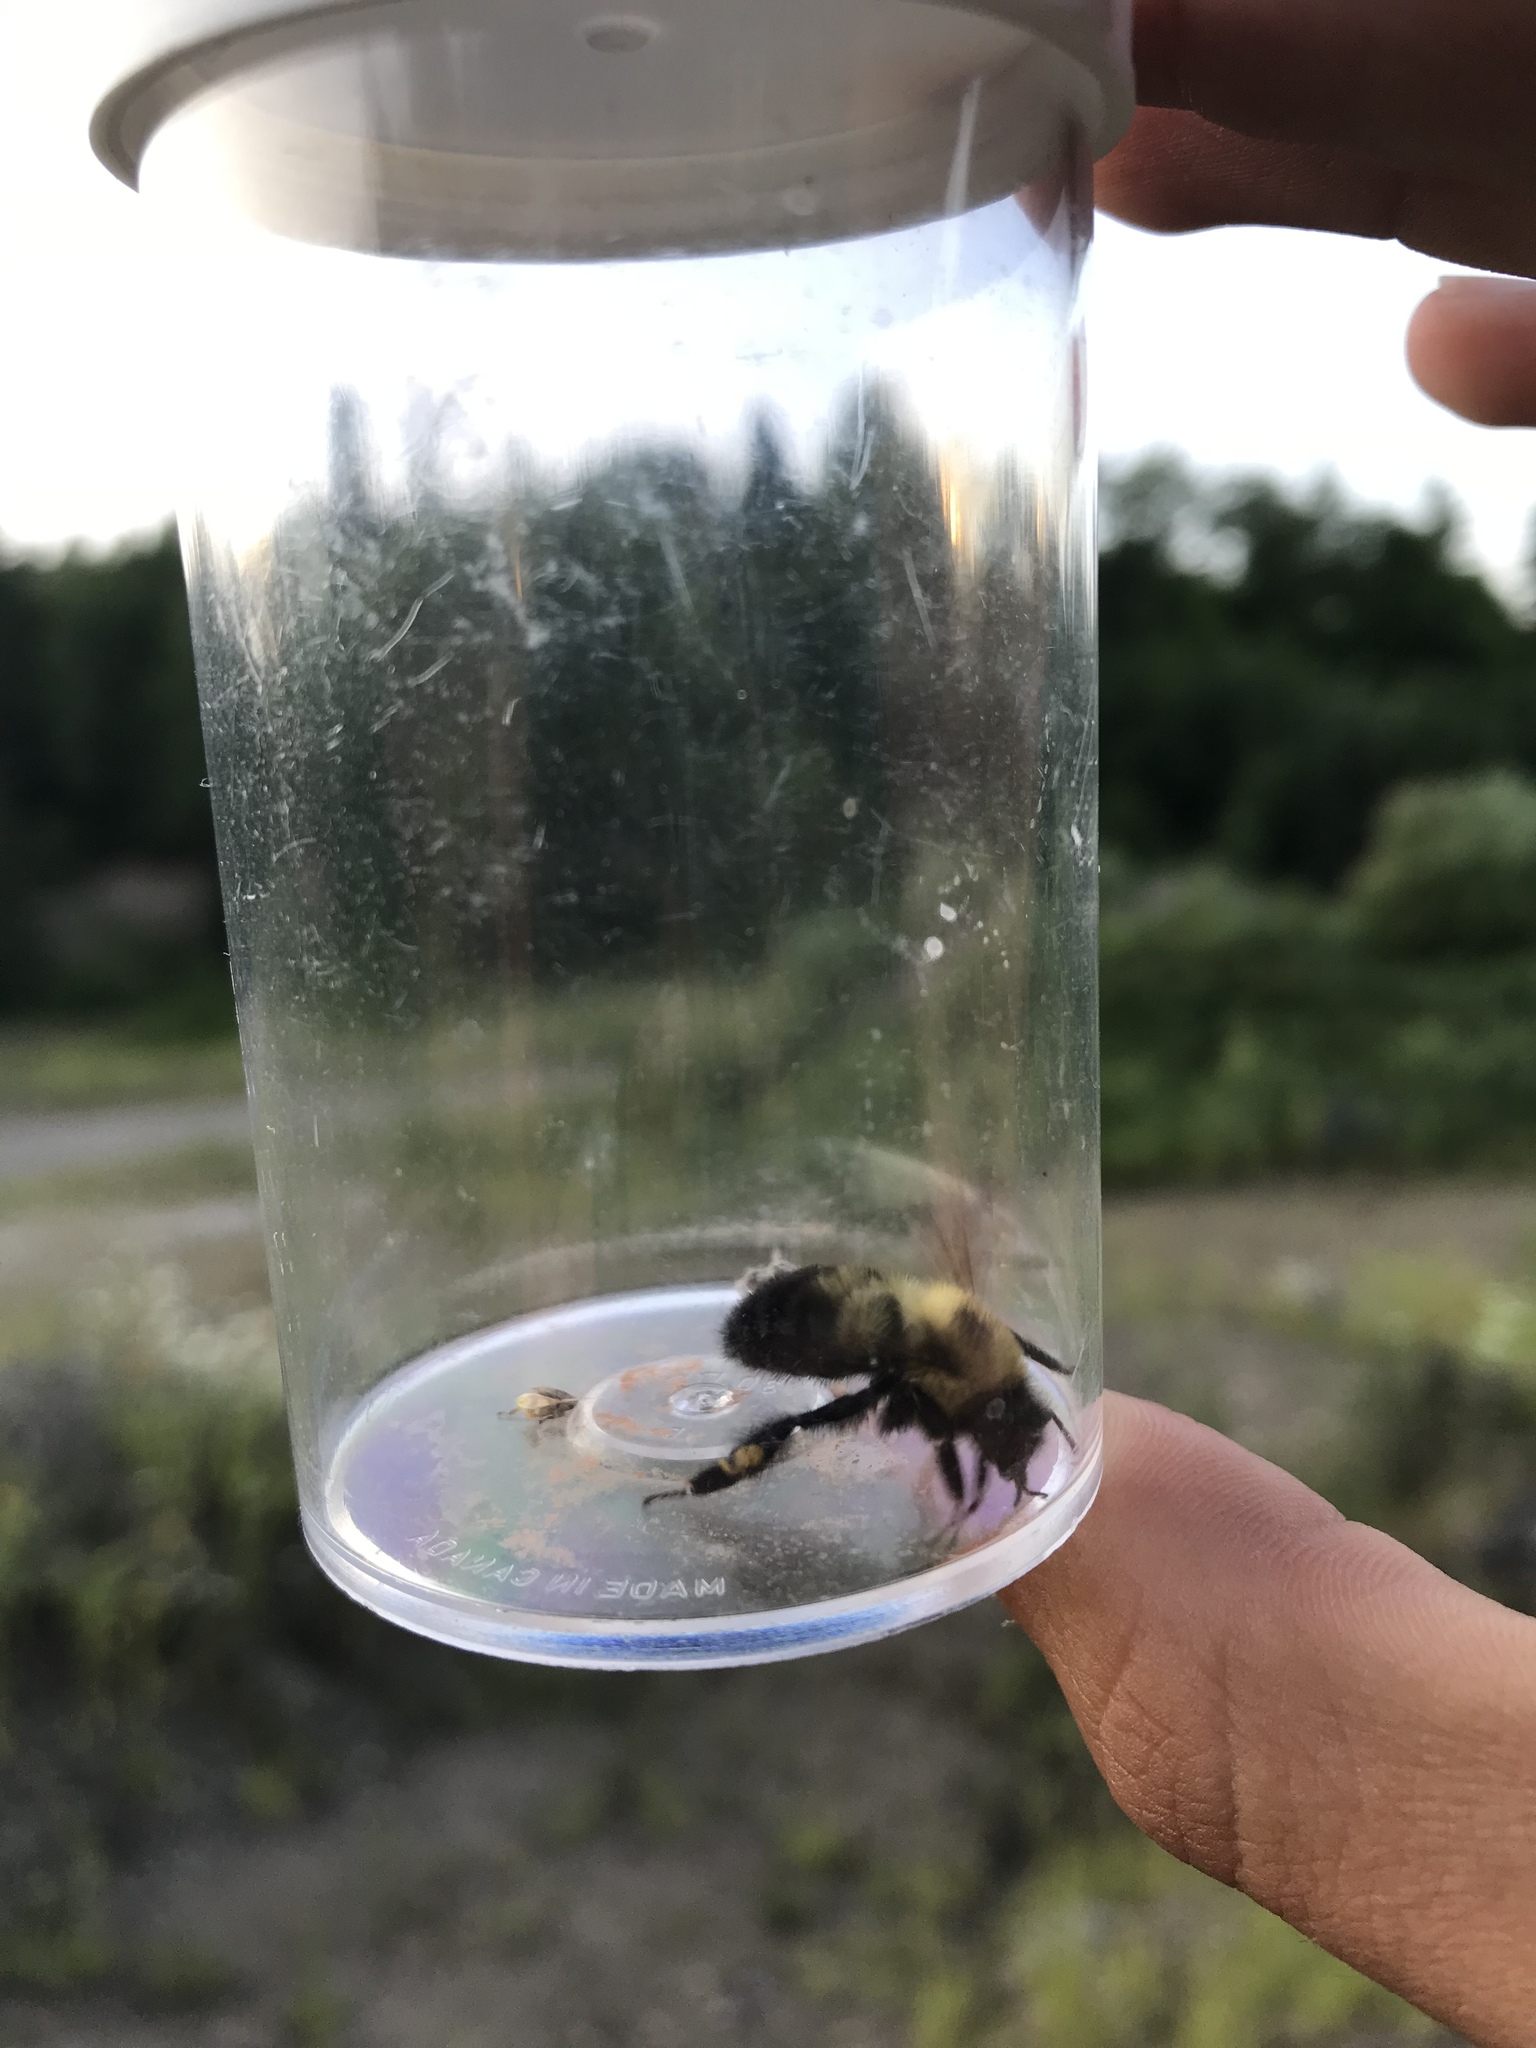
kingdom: Animalia
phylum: Arthropoda
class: Insecta
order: Hymenoptera
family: Apidae
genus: Bombus
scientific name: Bombus bimaculatus
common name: Two-spotted bumble bee
